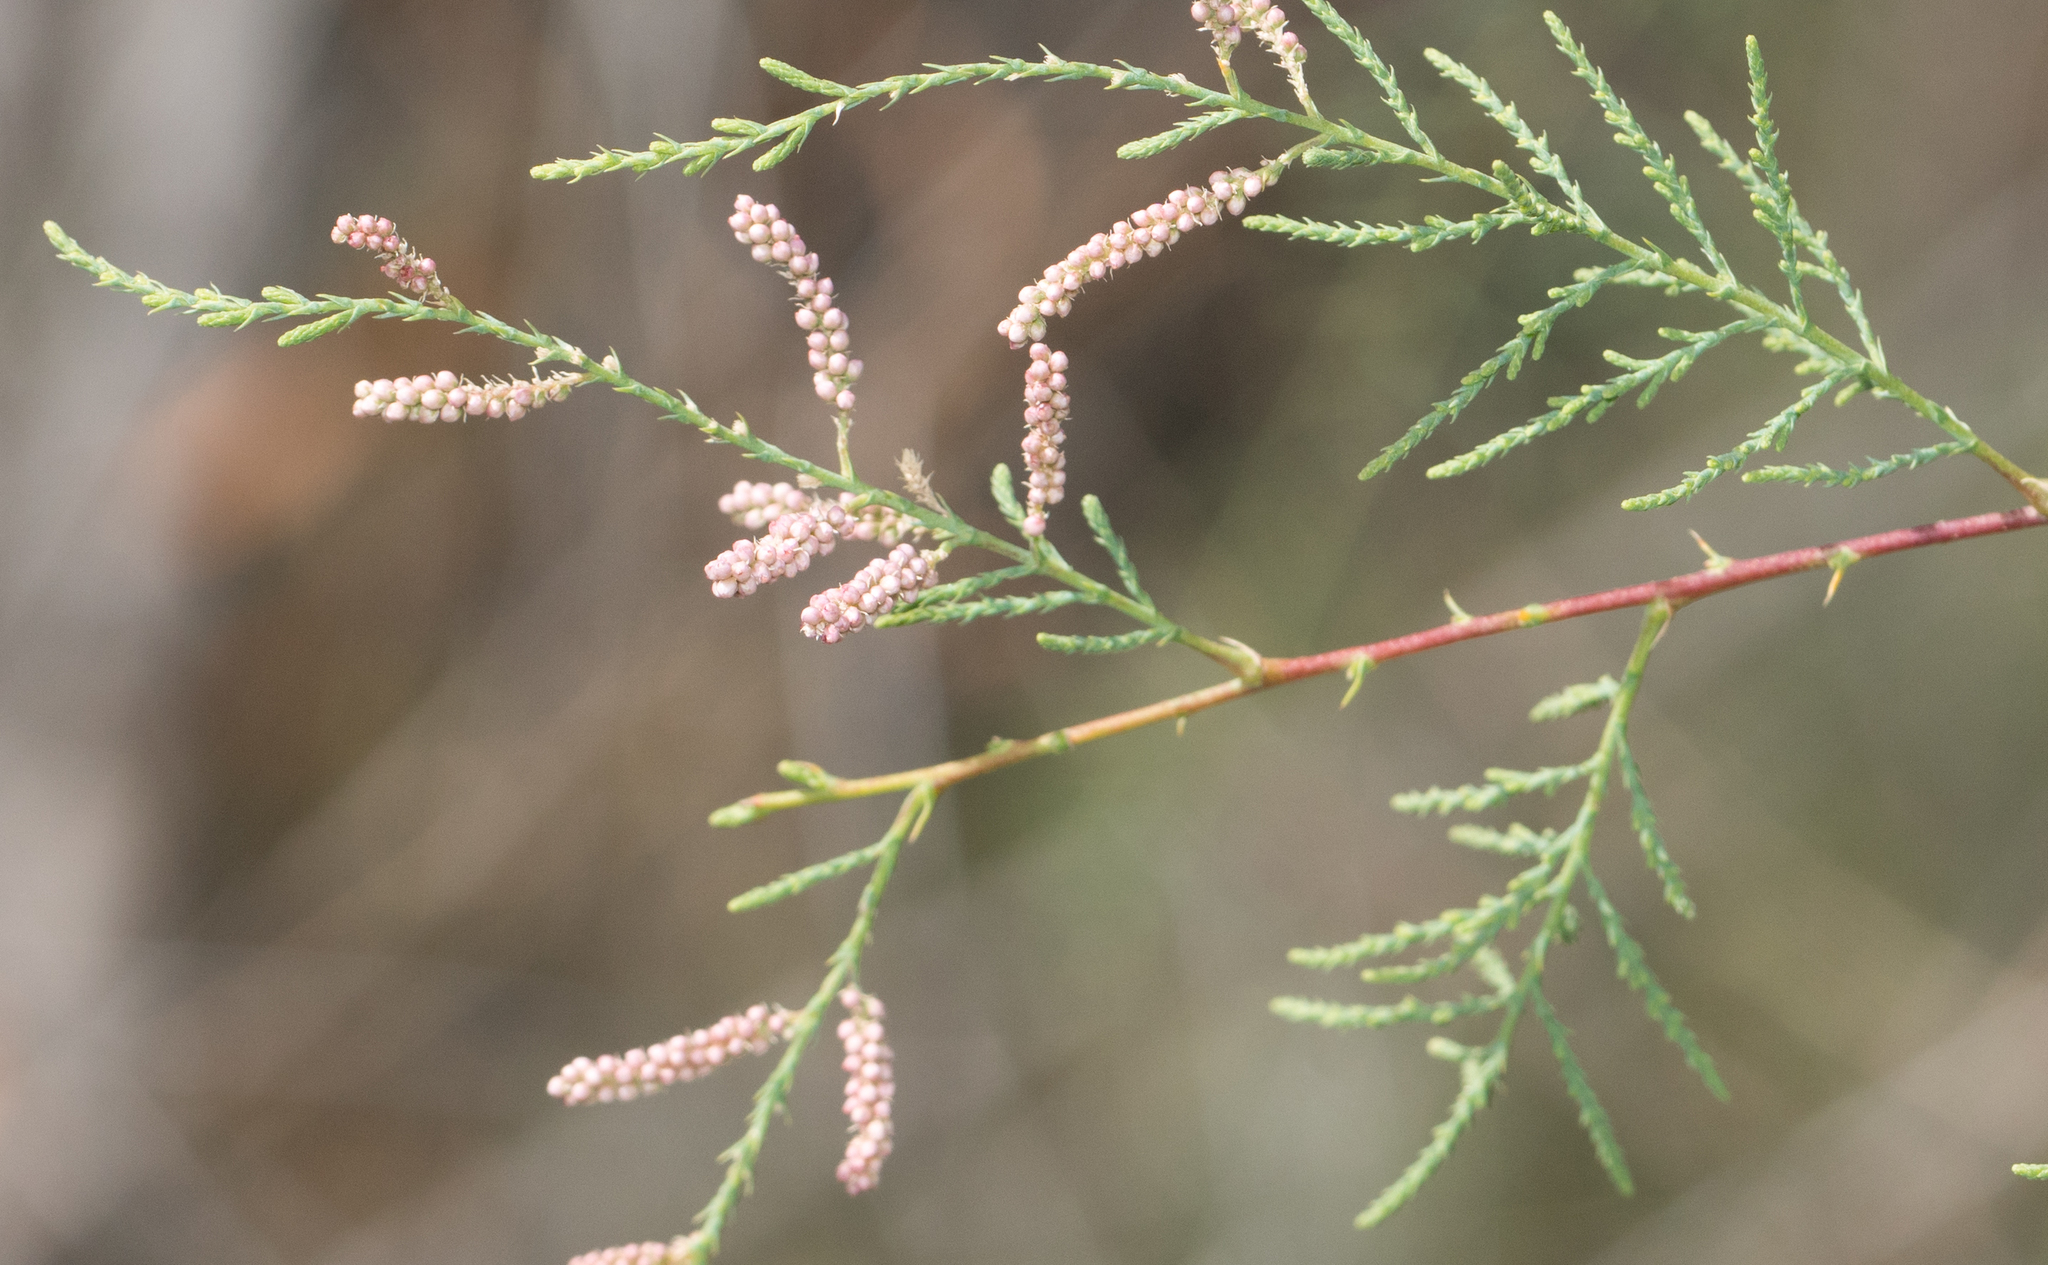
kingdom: Plantae
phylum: Tracheophyta
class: Magnoliopsida
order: Caryophyllales
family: Tamaricaceae
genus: Tamarix
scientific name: Tamarix
